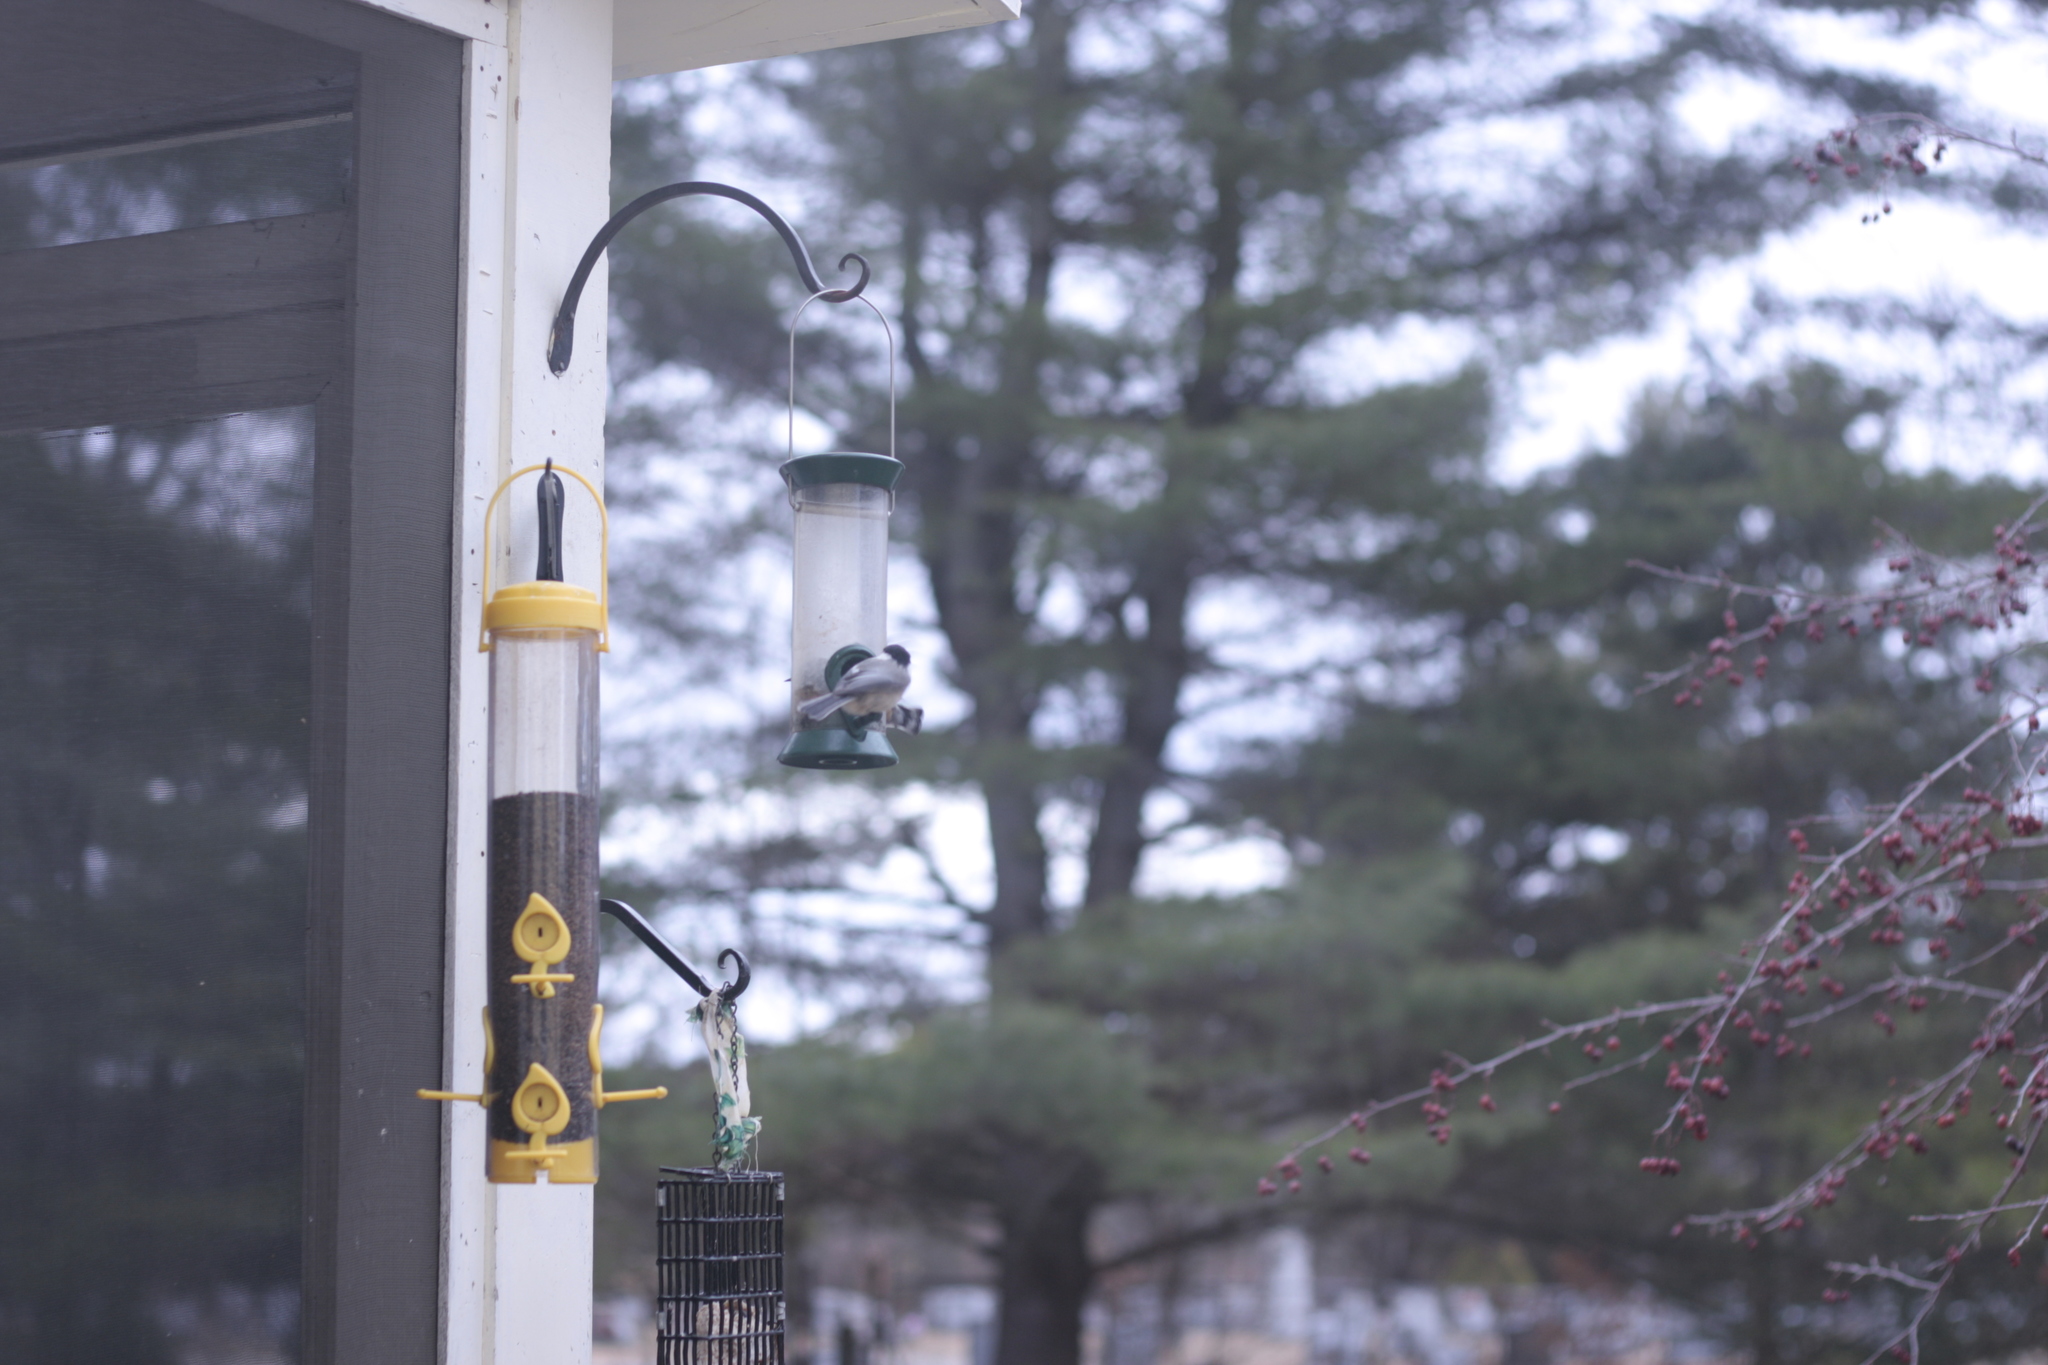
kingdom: Animalia
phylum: Chordata
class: Aves
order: Passeriformes
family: Paridae
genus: Poecile
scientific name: Poecile atricapillus
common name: Black-capped chickadee
